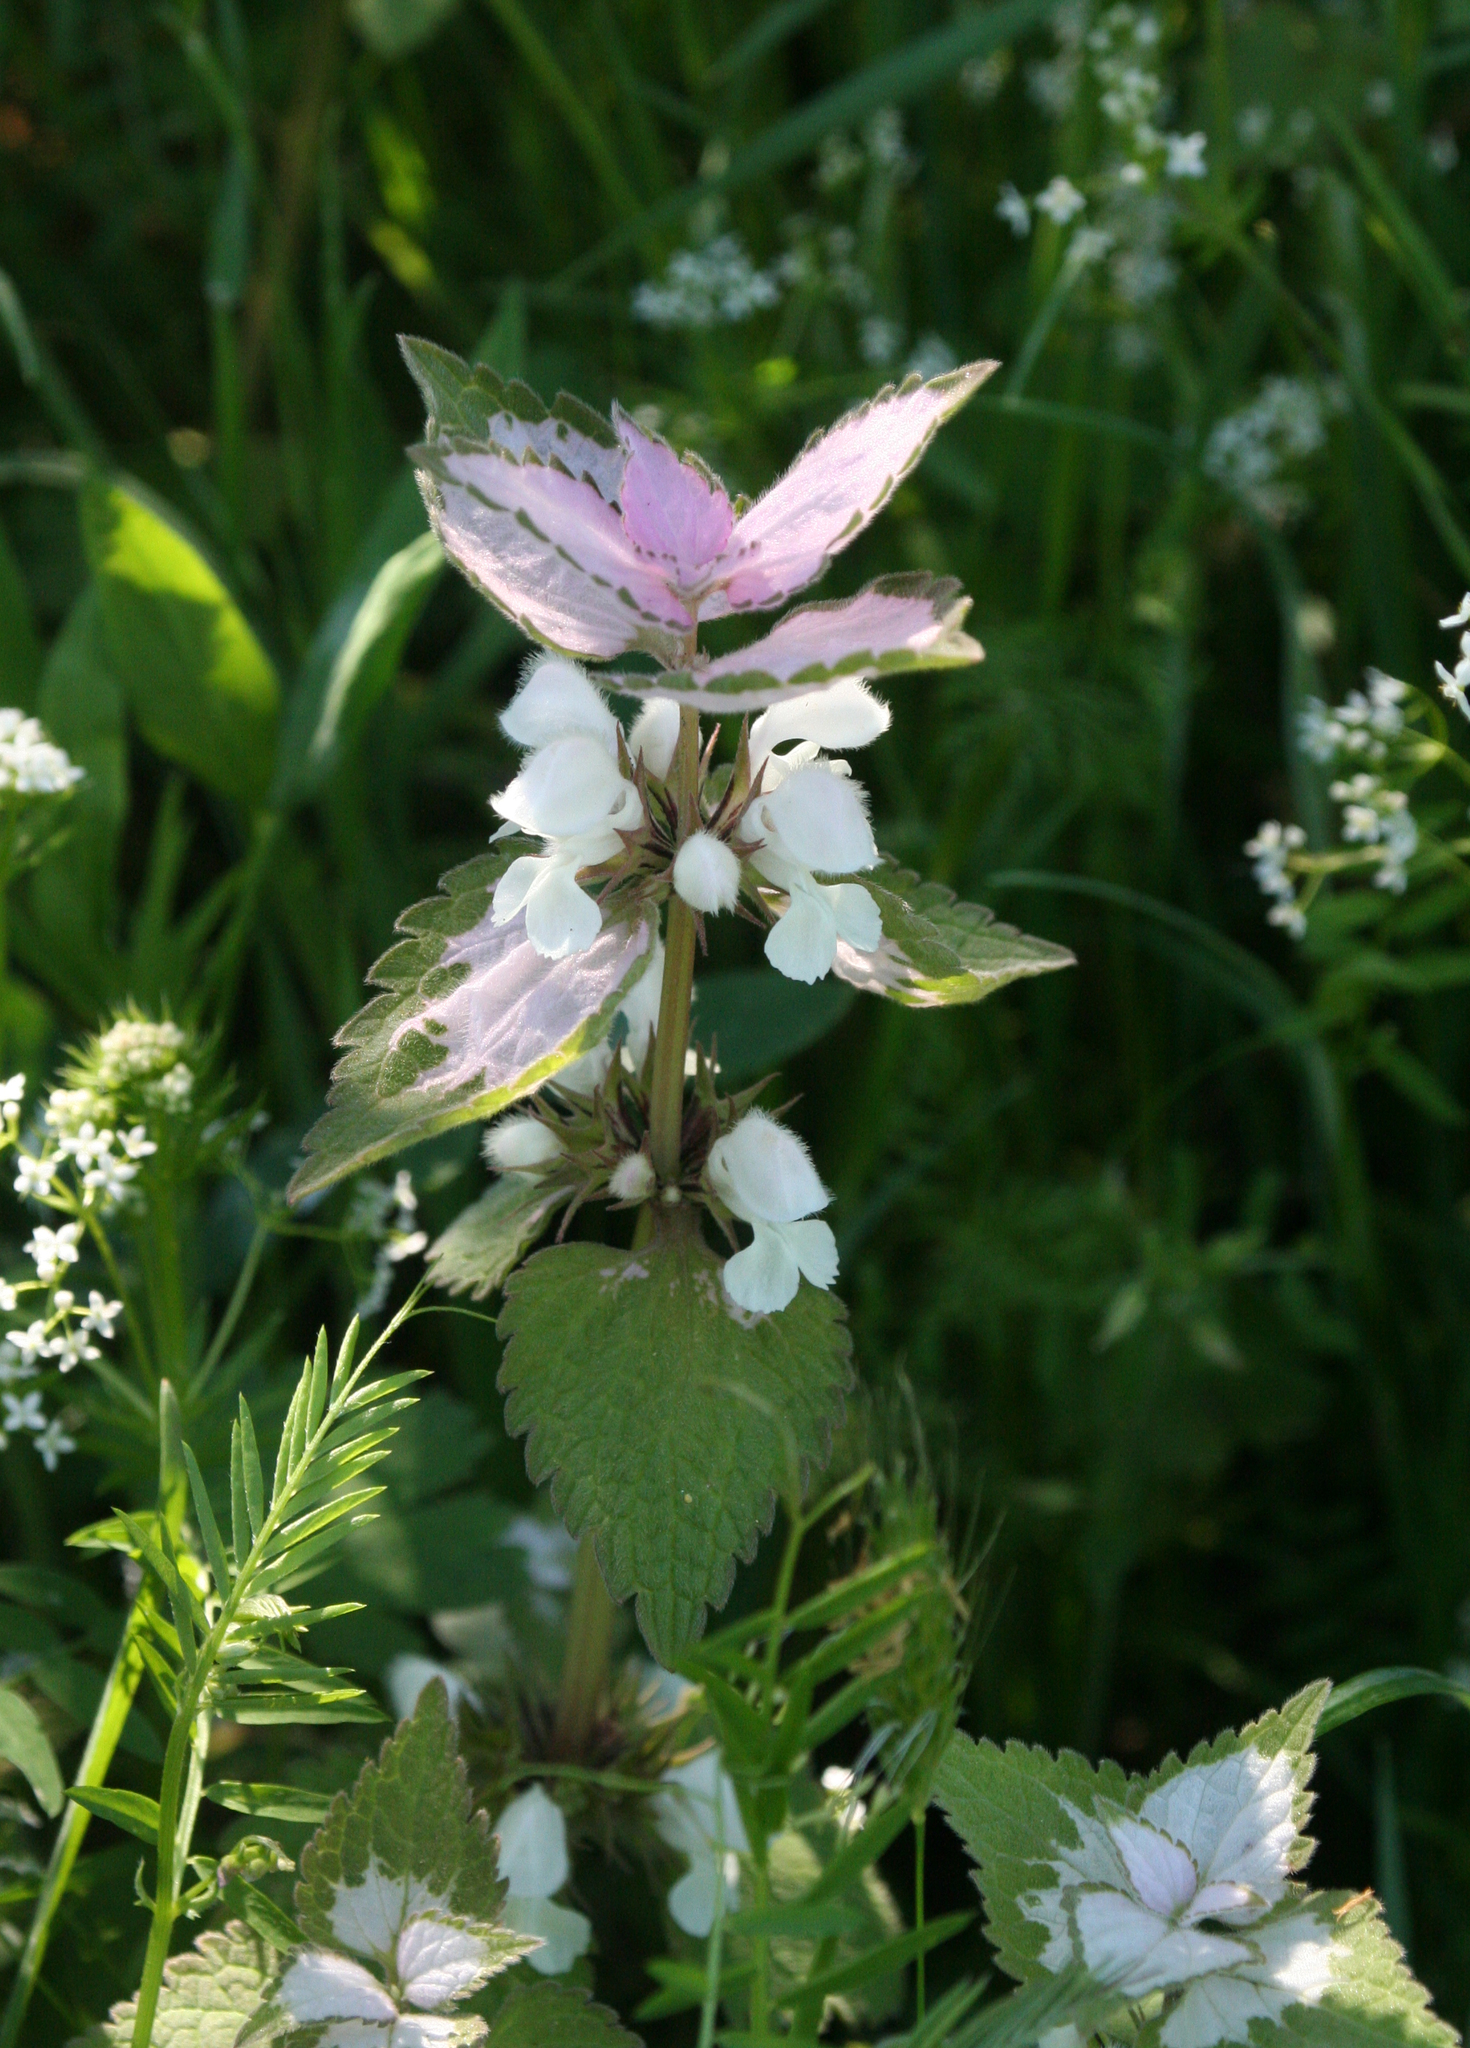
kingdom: Plantae
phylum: Tracheophyta
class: Magnoliopsida
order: Lamiales
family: Lamiaceae
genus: Lamium
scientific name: Lamium moschatum
